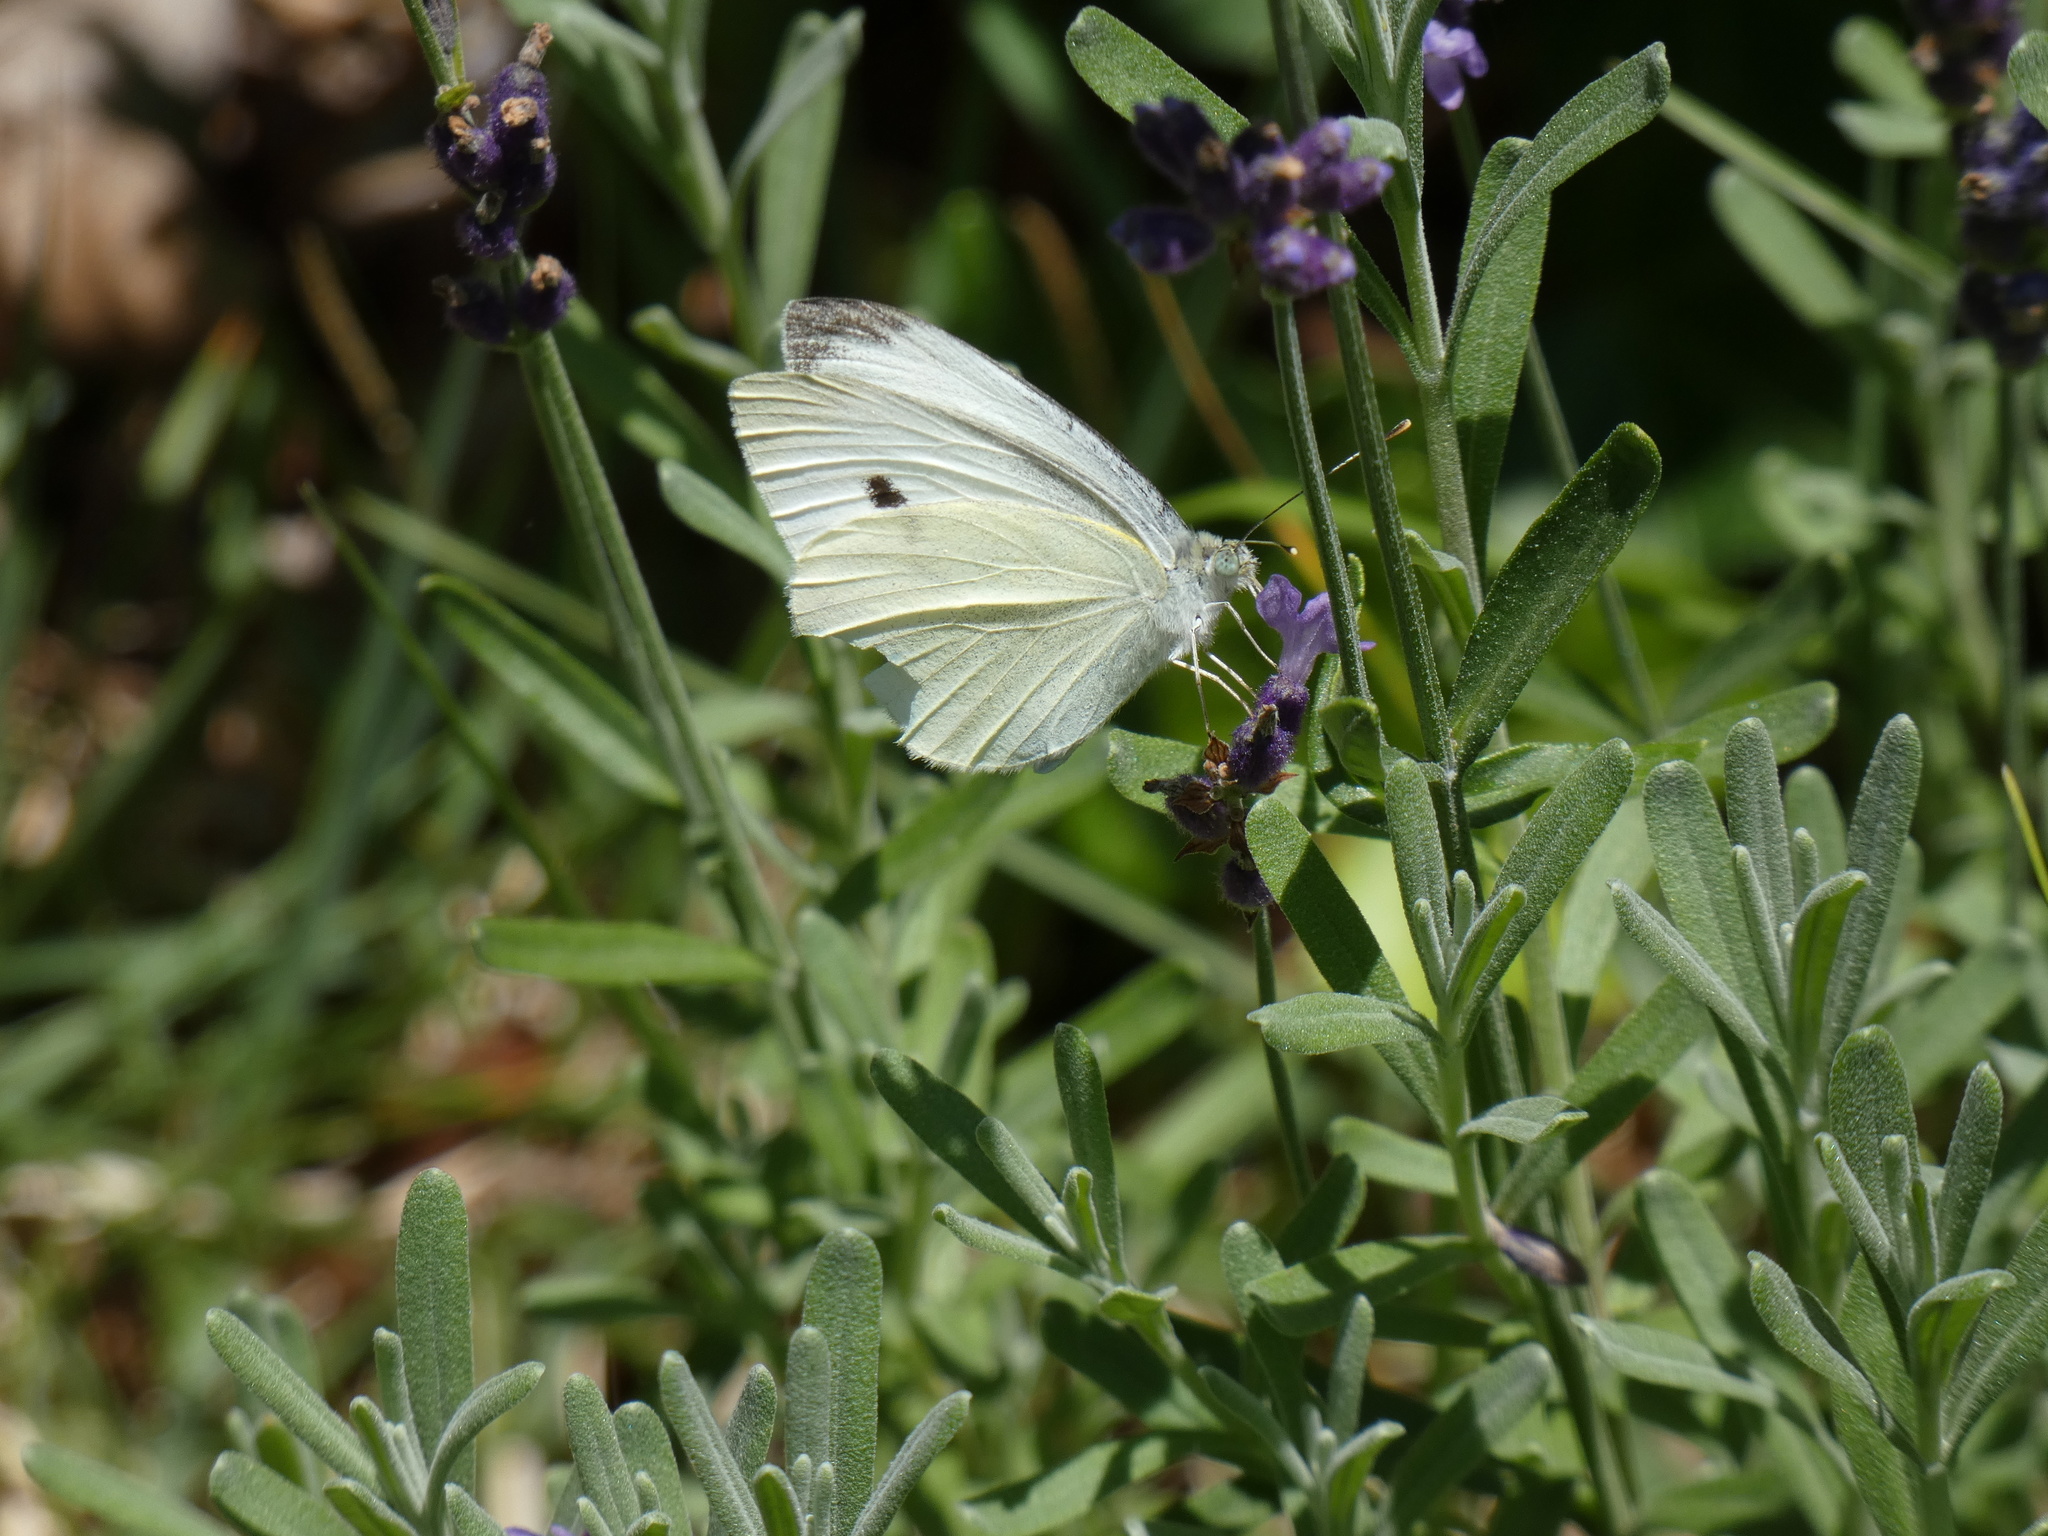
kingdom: Animalia
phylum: Arthropoda
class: Insecta
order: Lepidoptera
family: Pieridae
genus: Pieris
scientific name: Pieris rapae
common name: Small white
